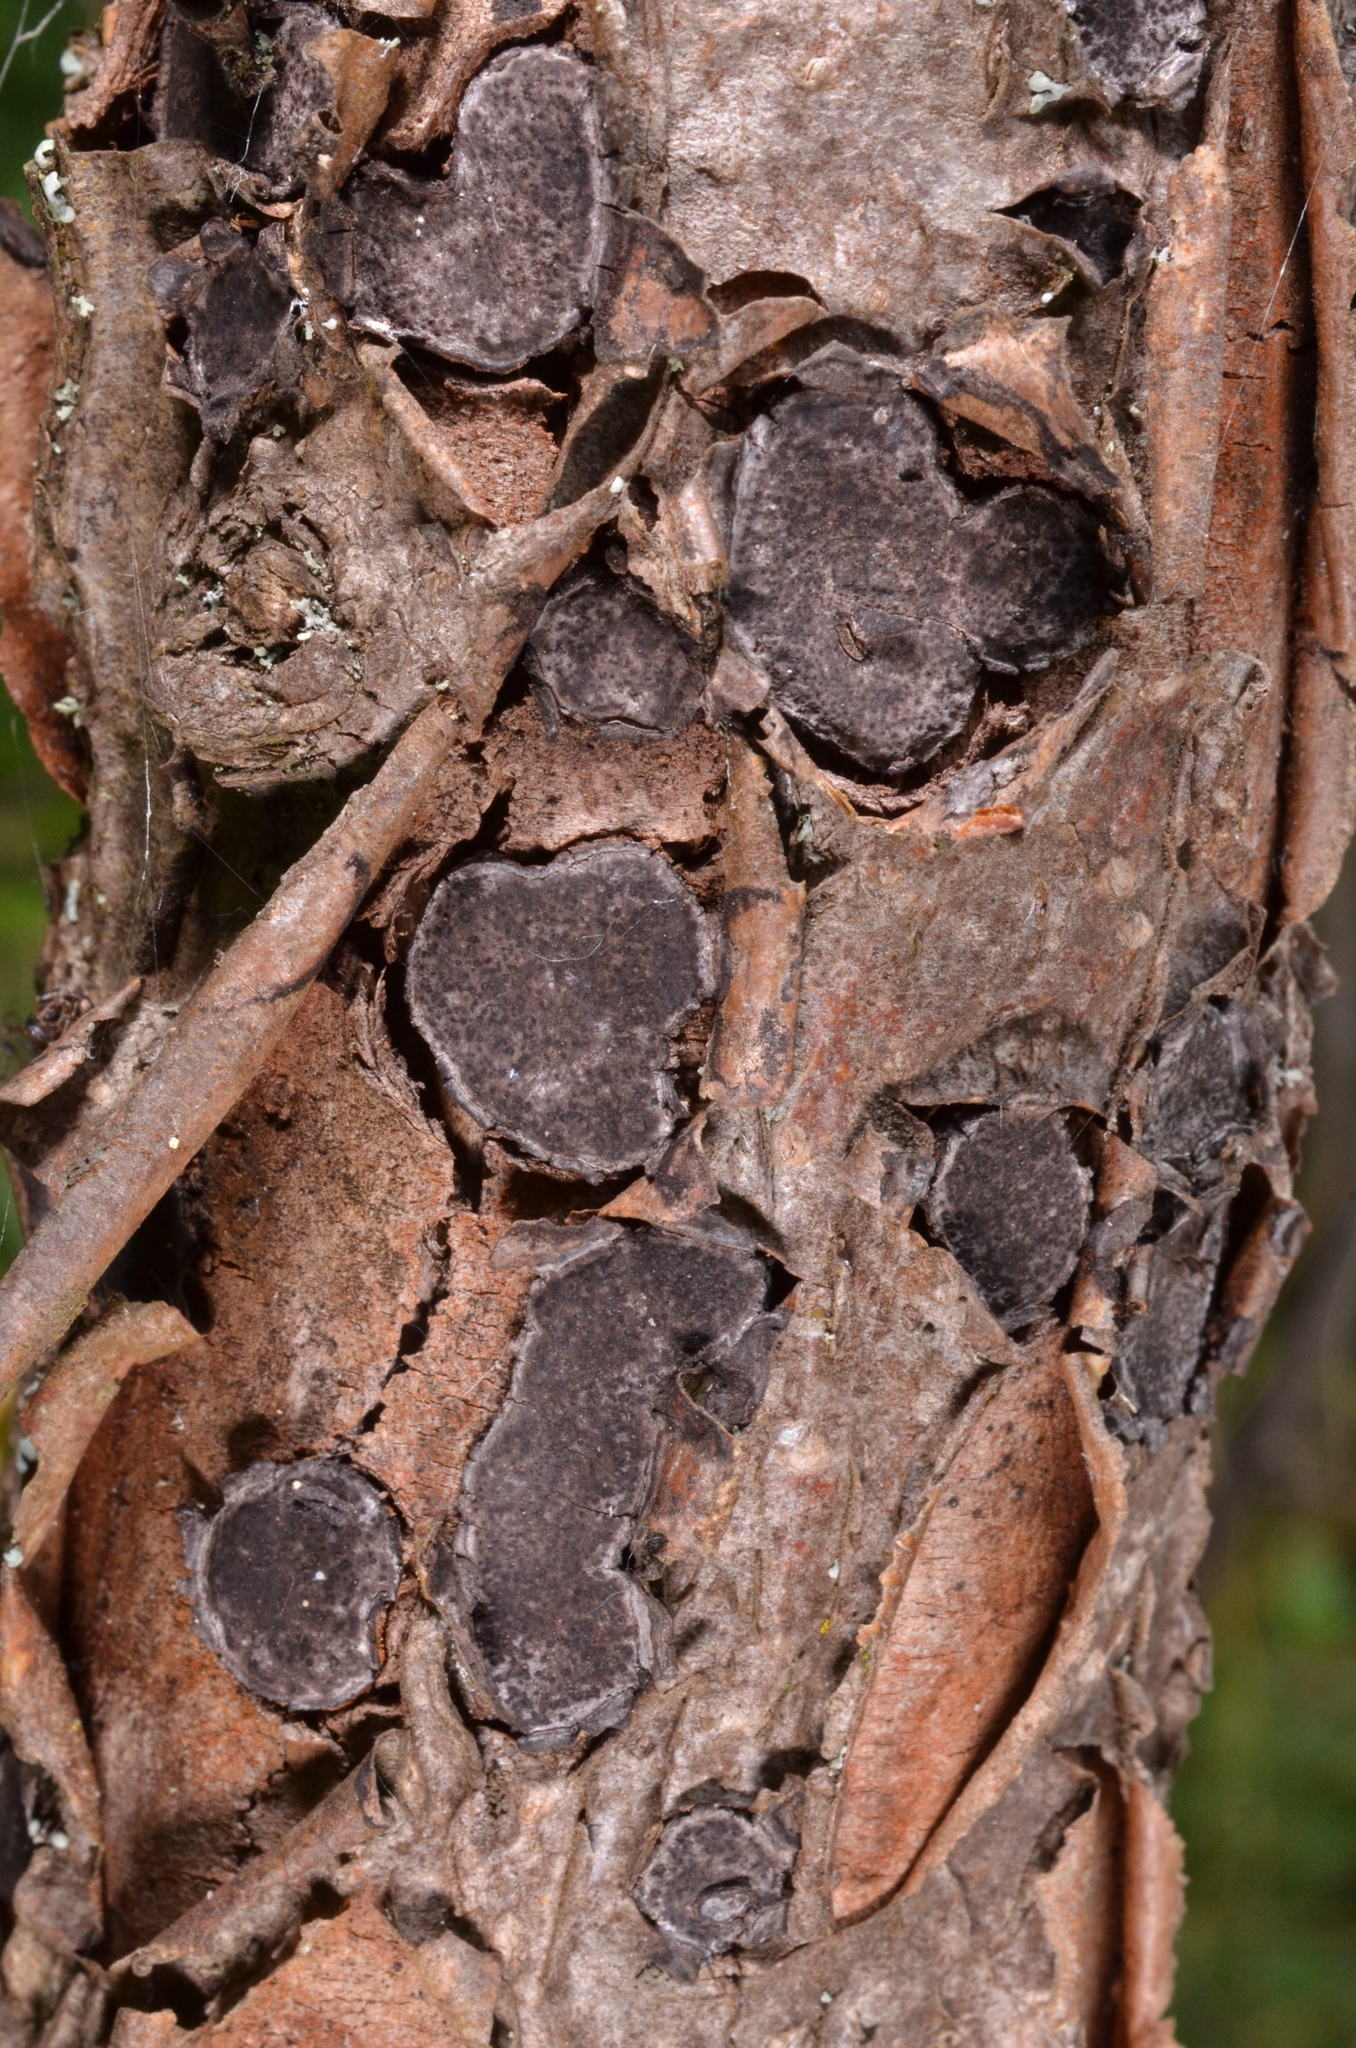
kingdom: Fungi
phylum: Ascomycota
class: Sordariomycetes
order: Xylariales
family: Graphostromataceae
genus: Biscogniauxia
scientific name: Biscogniauxia granmoi
